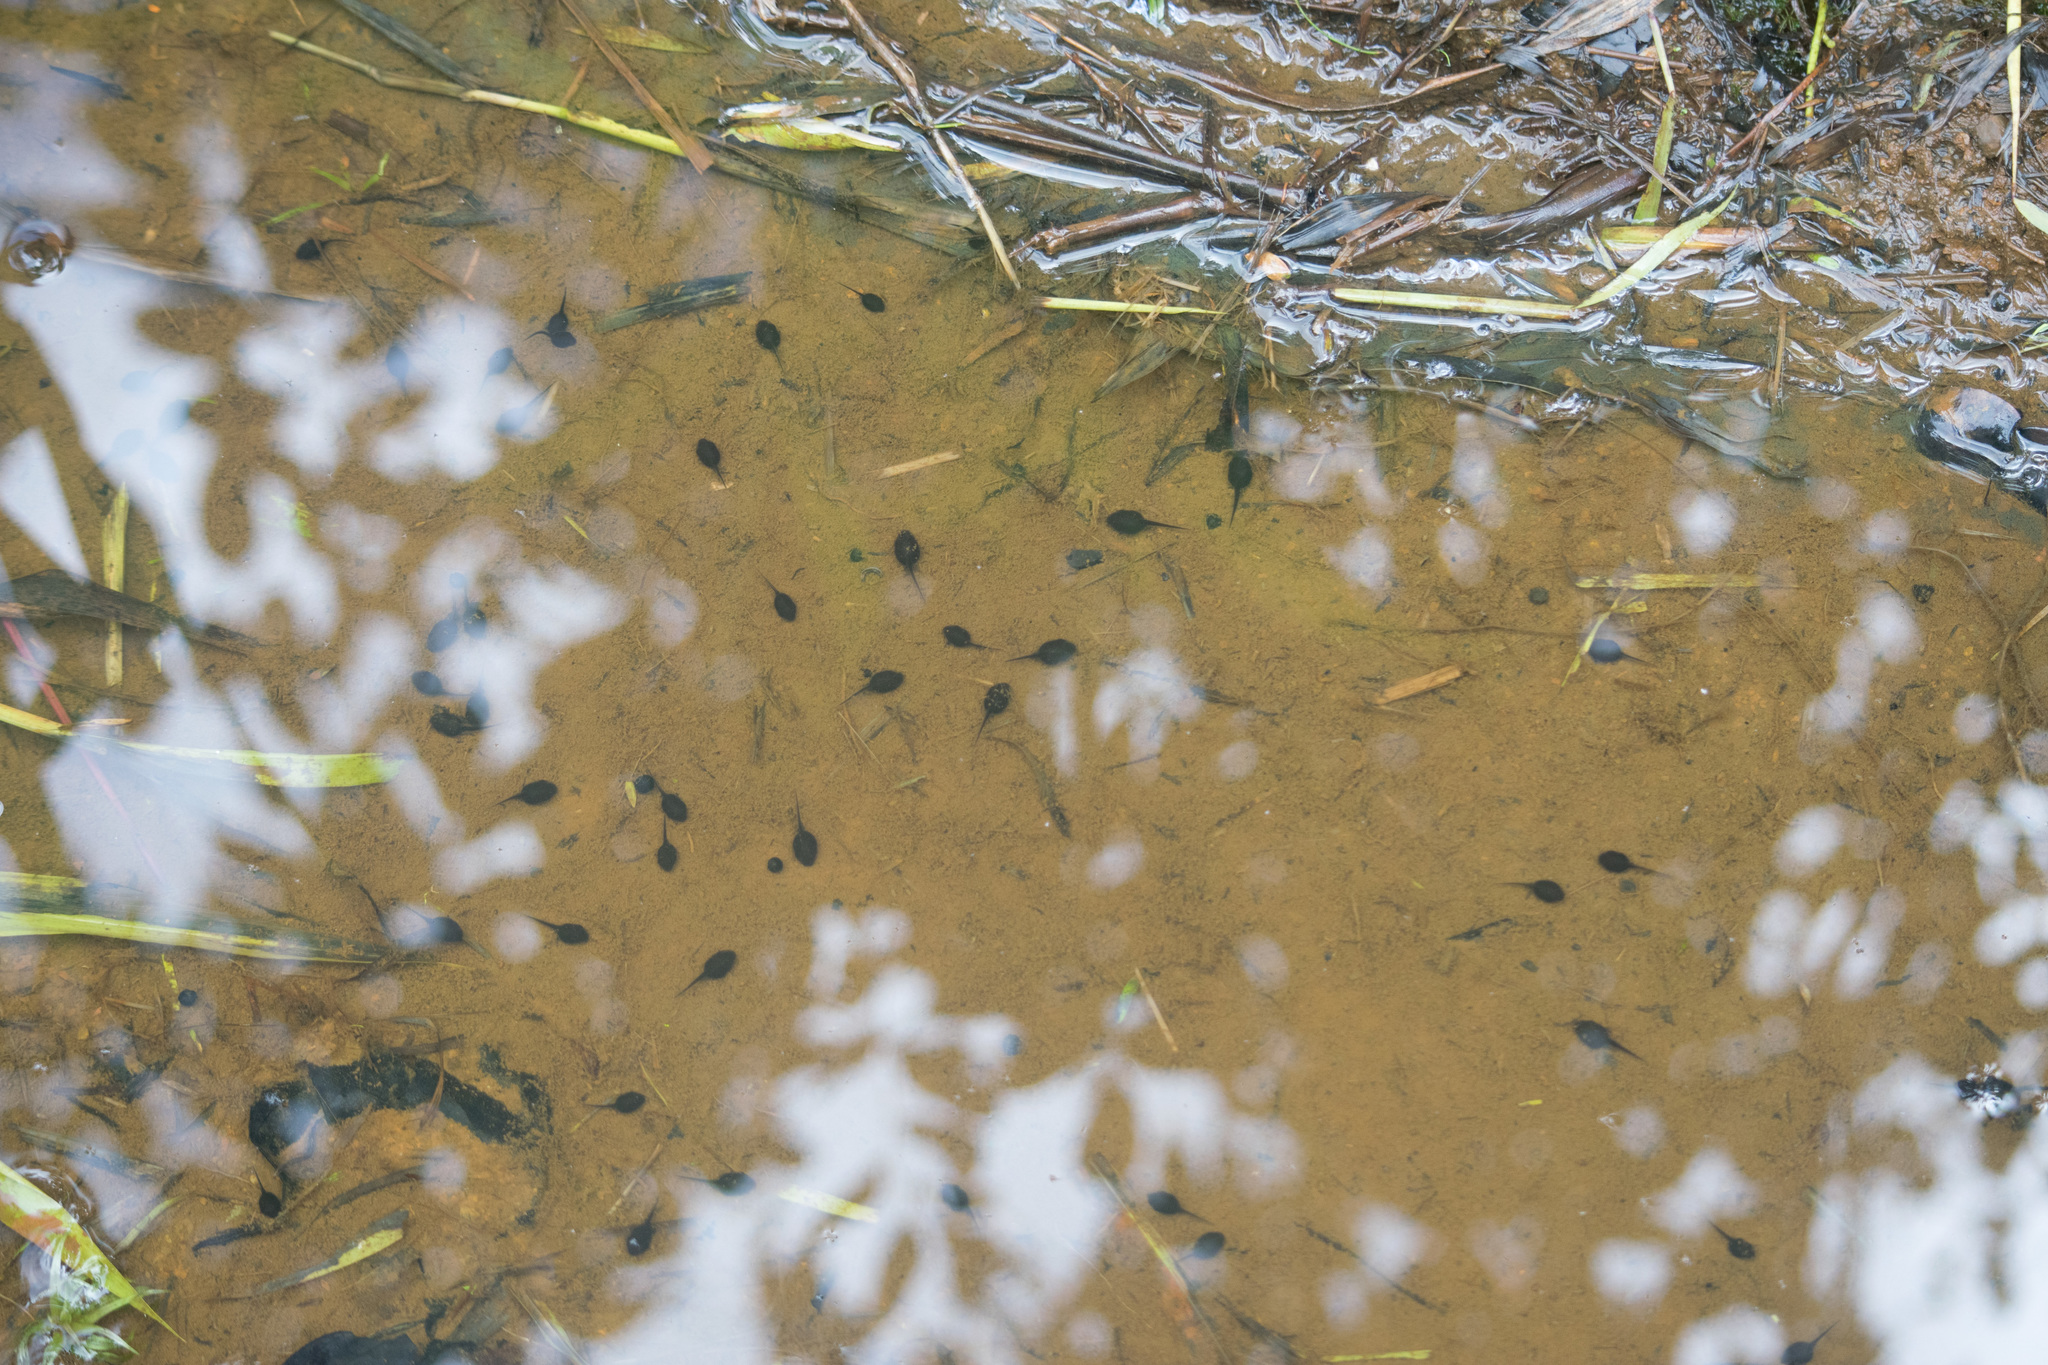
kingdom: Animalia
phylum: Chordata
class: Amphibia
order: Anura
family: Bufonidae
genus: Rhinella
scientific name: Rhinella marina
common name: Cane toad
